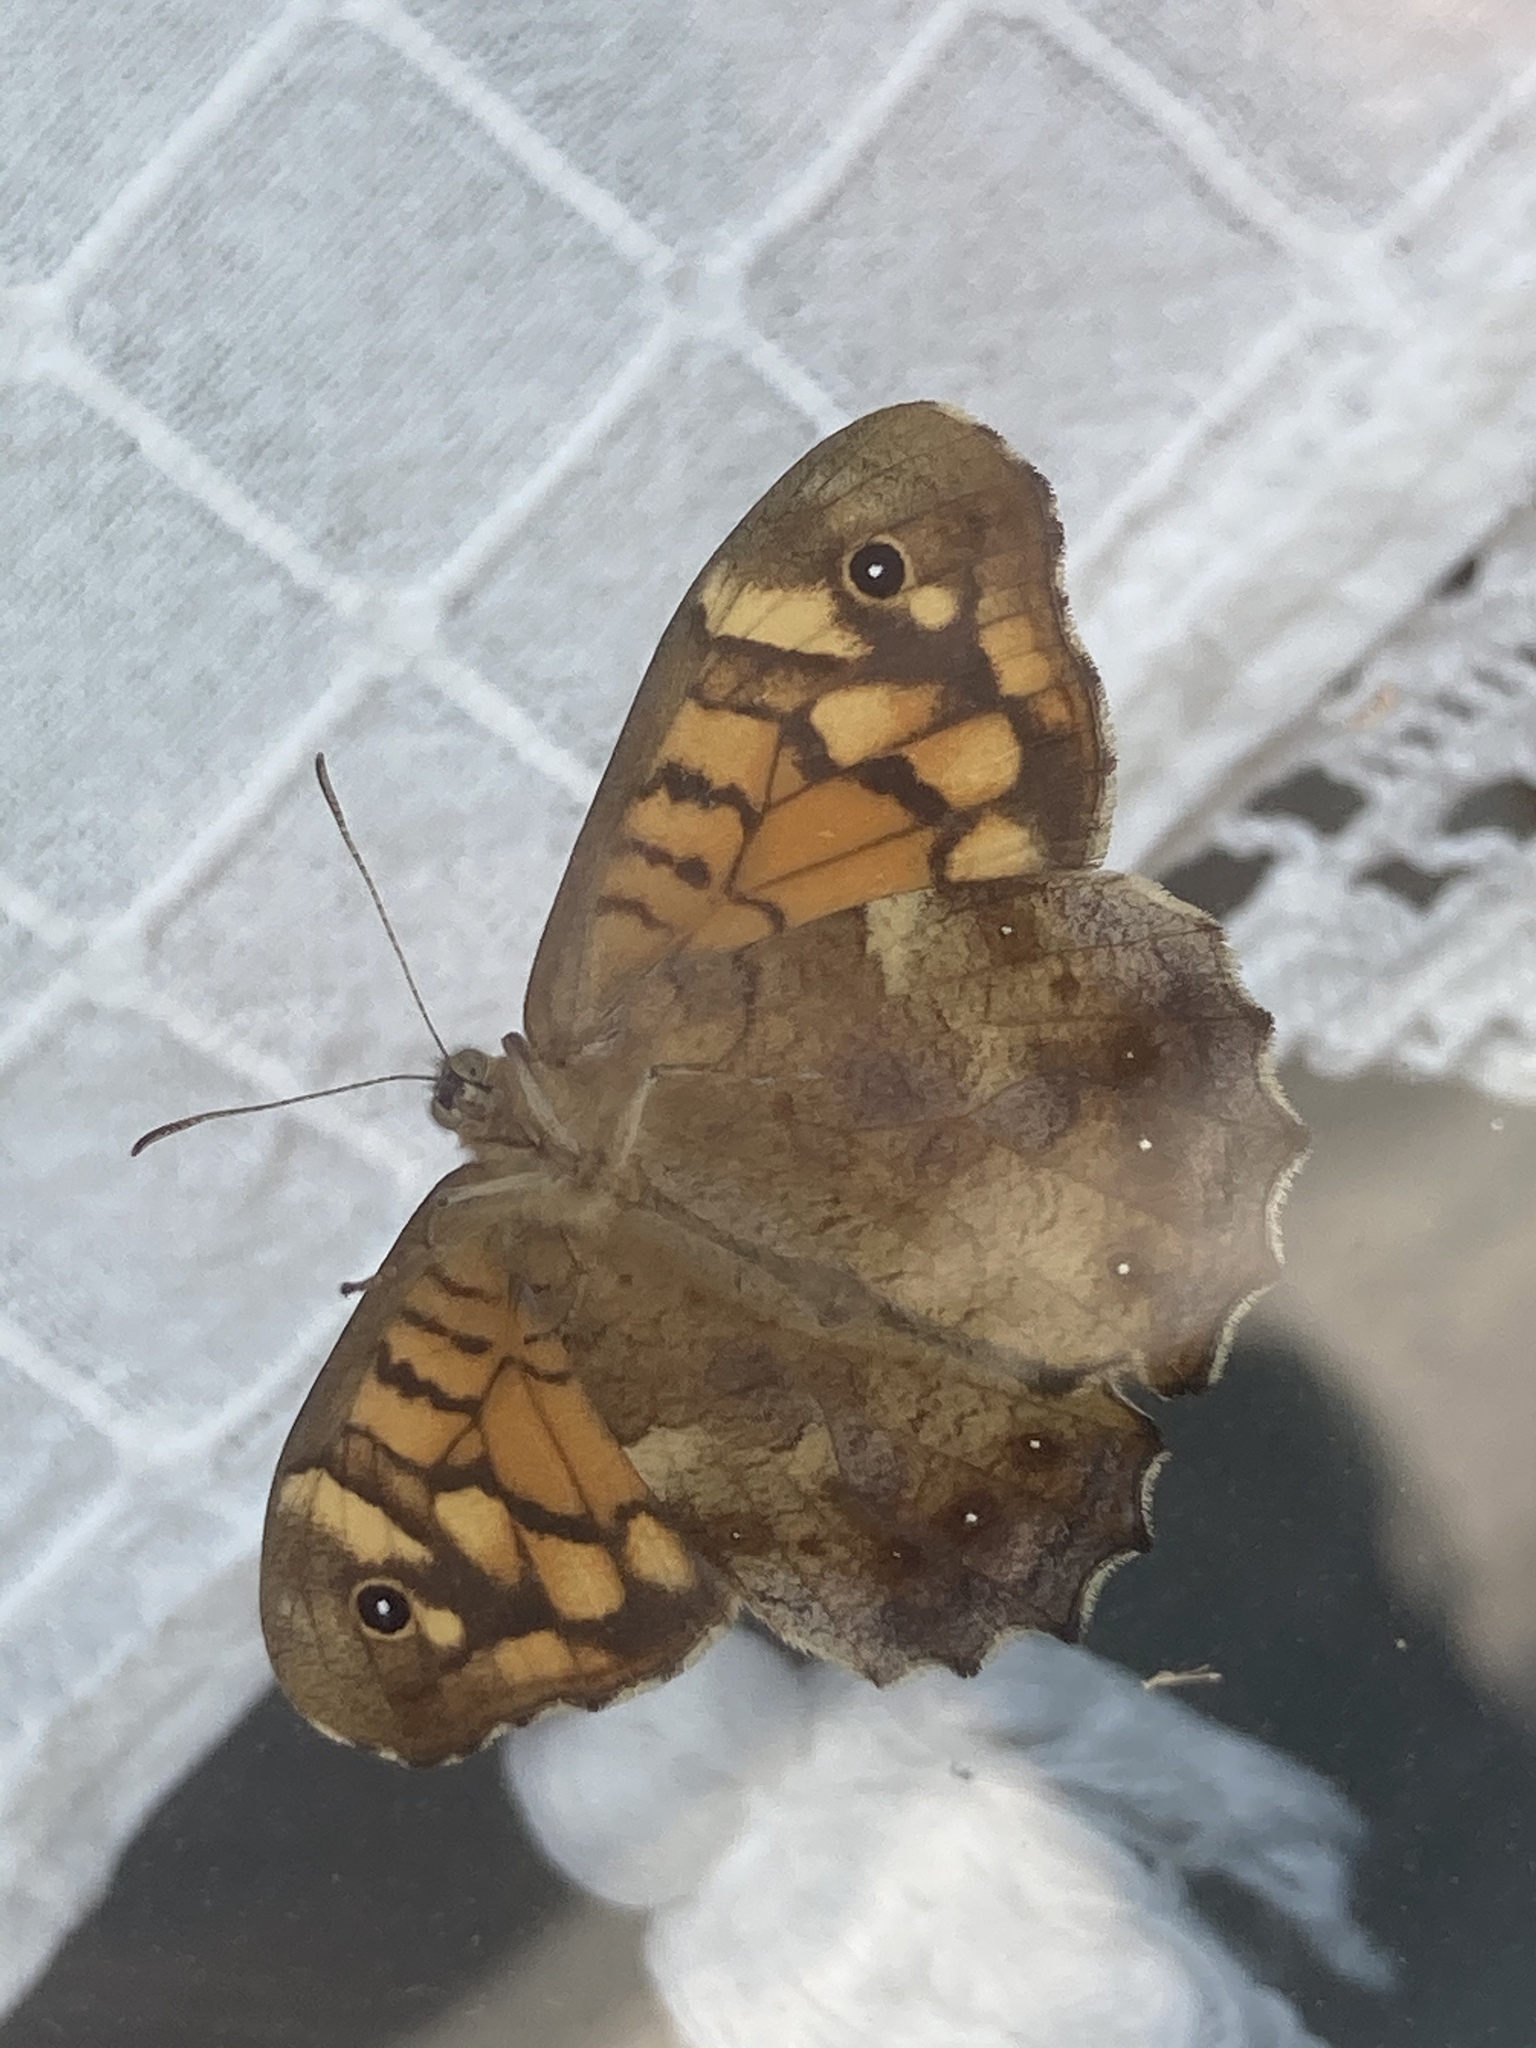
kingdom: Animalia
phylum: Arthropoda
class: Insecta
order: Lepidoptera
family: Nymphalidae
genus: Pararge
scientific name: Pararge aegeria
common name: Speckled wood
